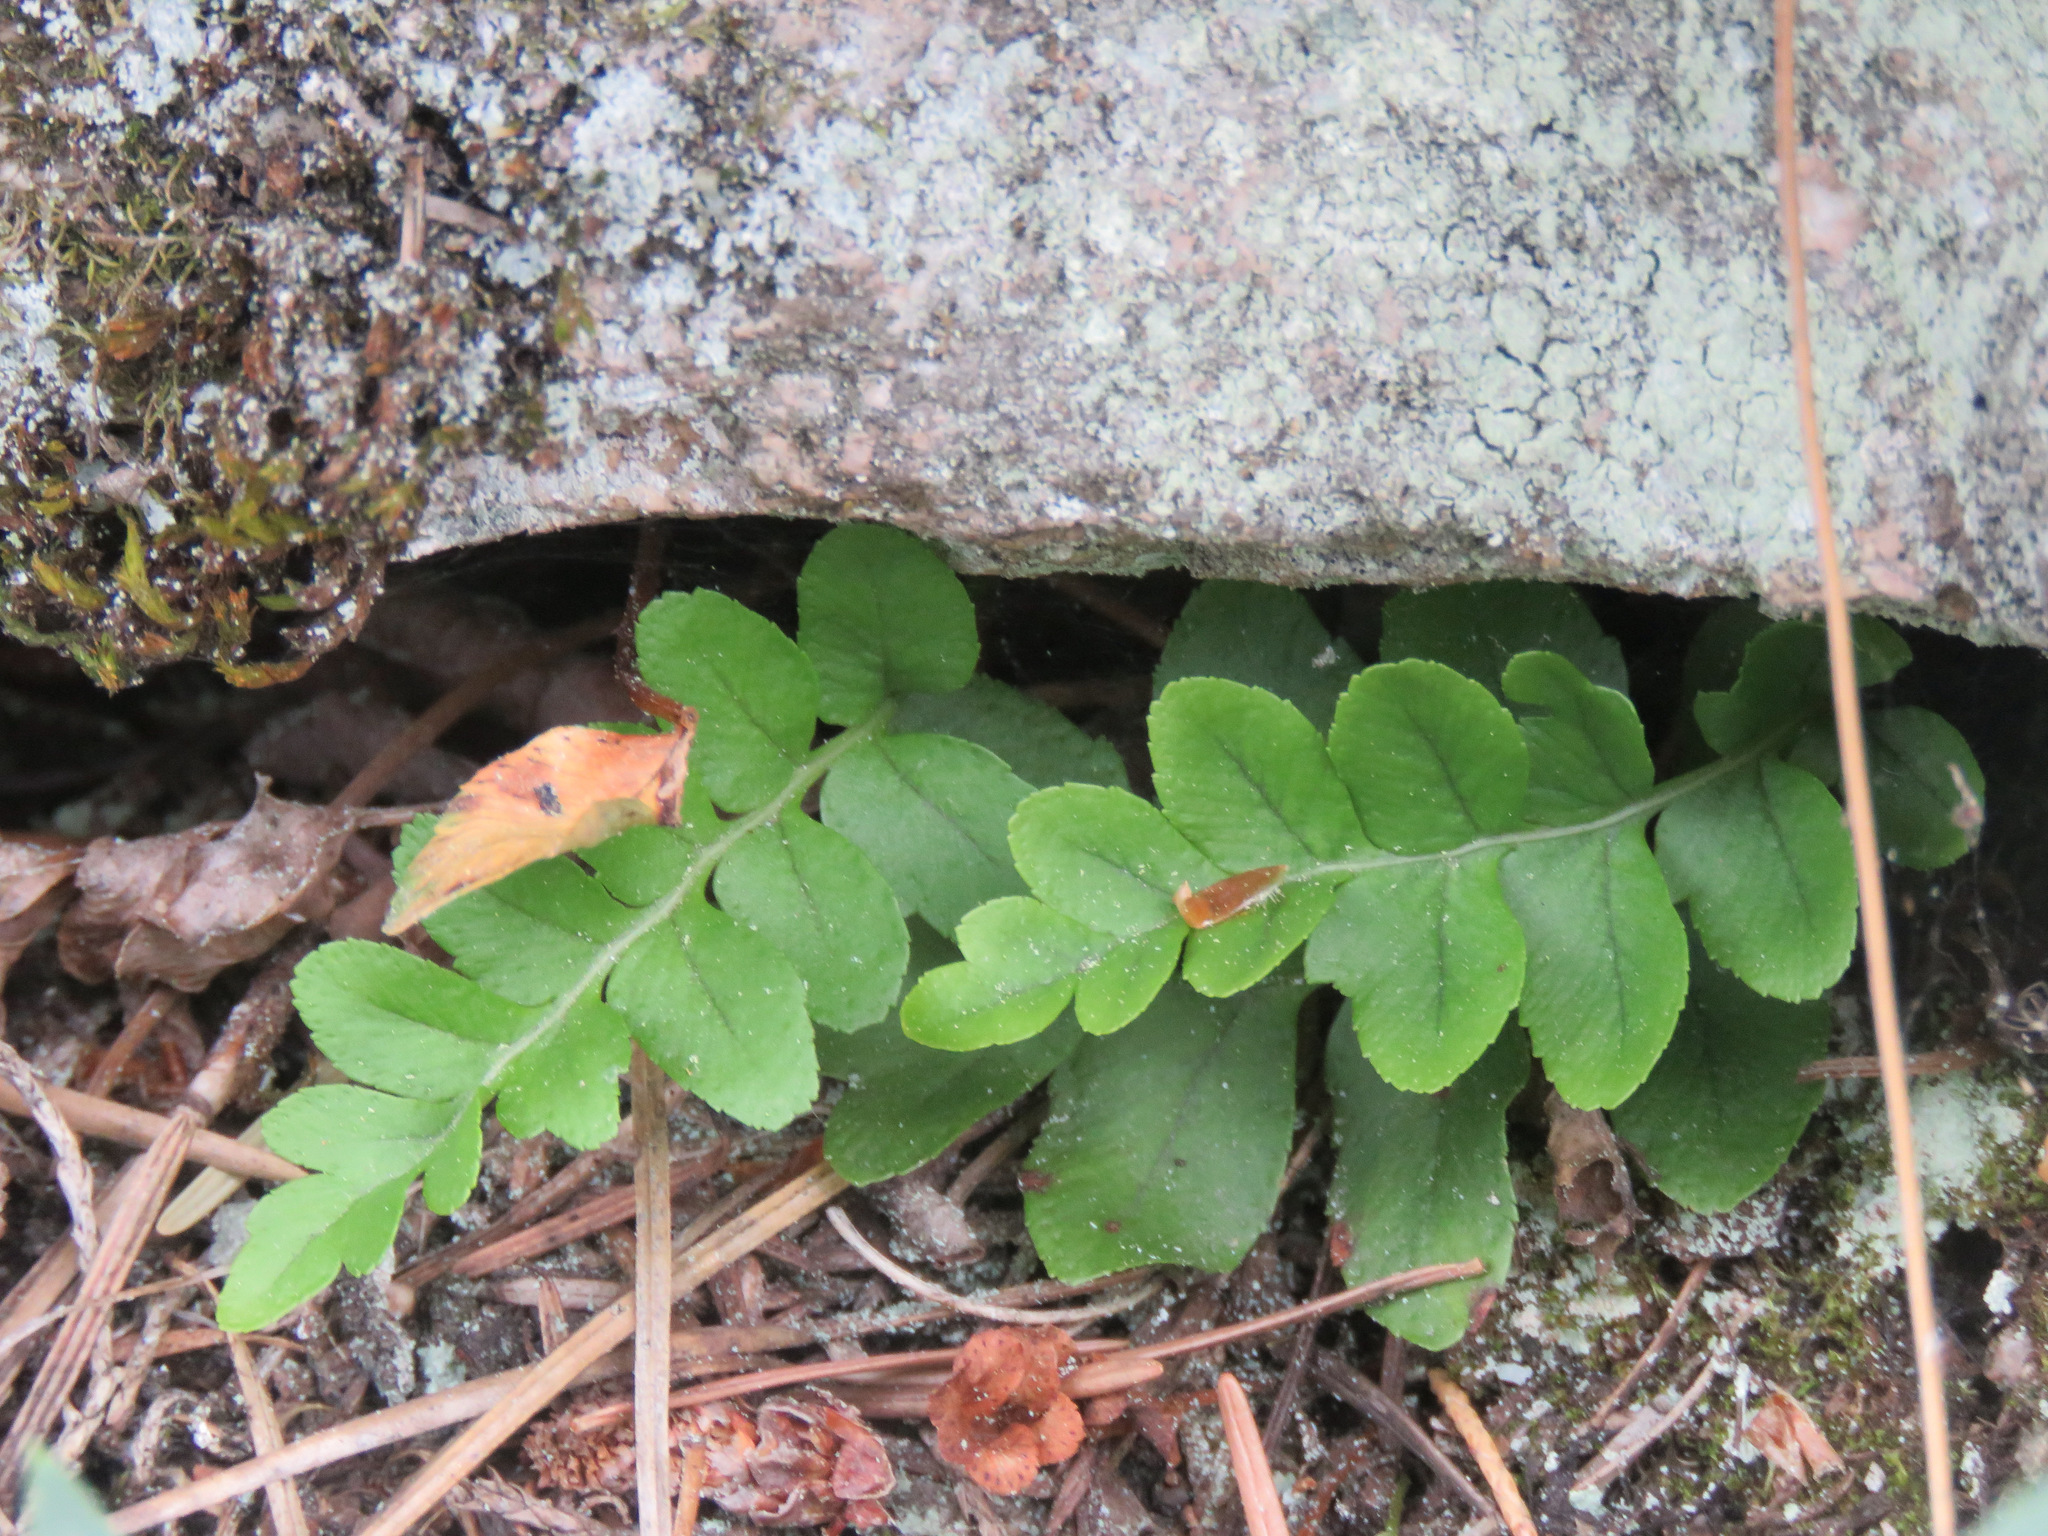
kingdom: Plantae
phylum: Tracheophyta
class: Polypodiopsida
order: Polypodiales
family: Polypodiaceae
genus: Polypodium
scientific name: Polypodium hesperium
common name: Western polypody
